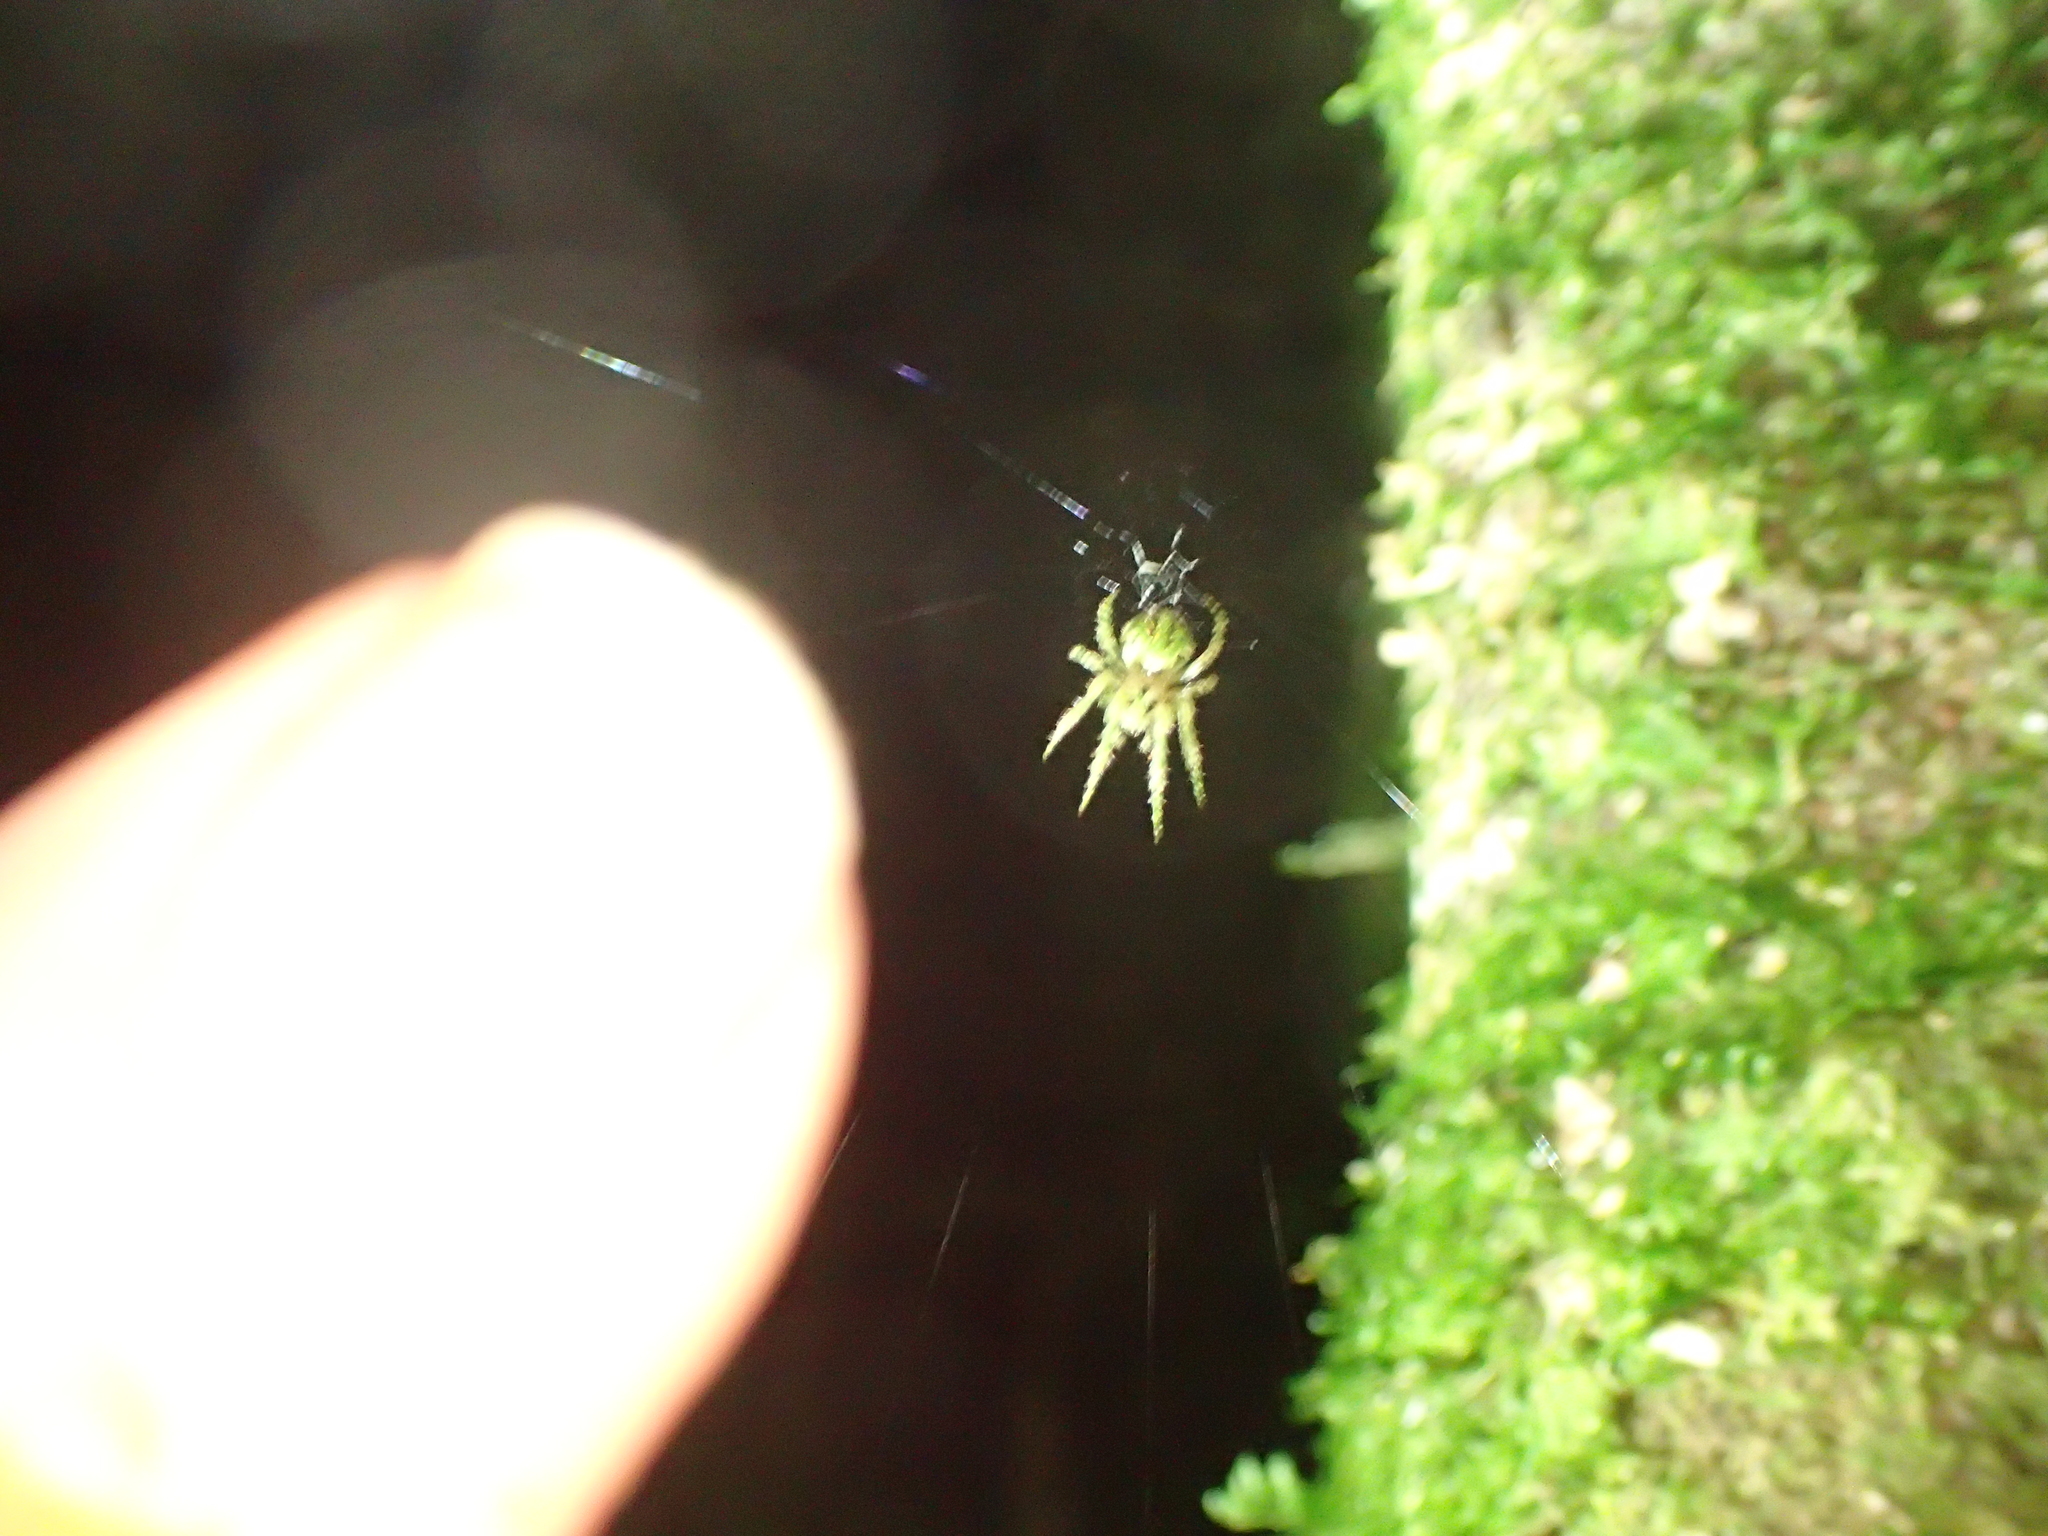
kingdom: Animalia
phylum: Arthropoda
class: Arachnida
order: Araneae
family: Araneidae
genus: Cryptaranea
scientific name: Cryptaranea atrihastula
